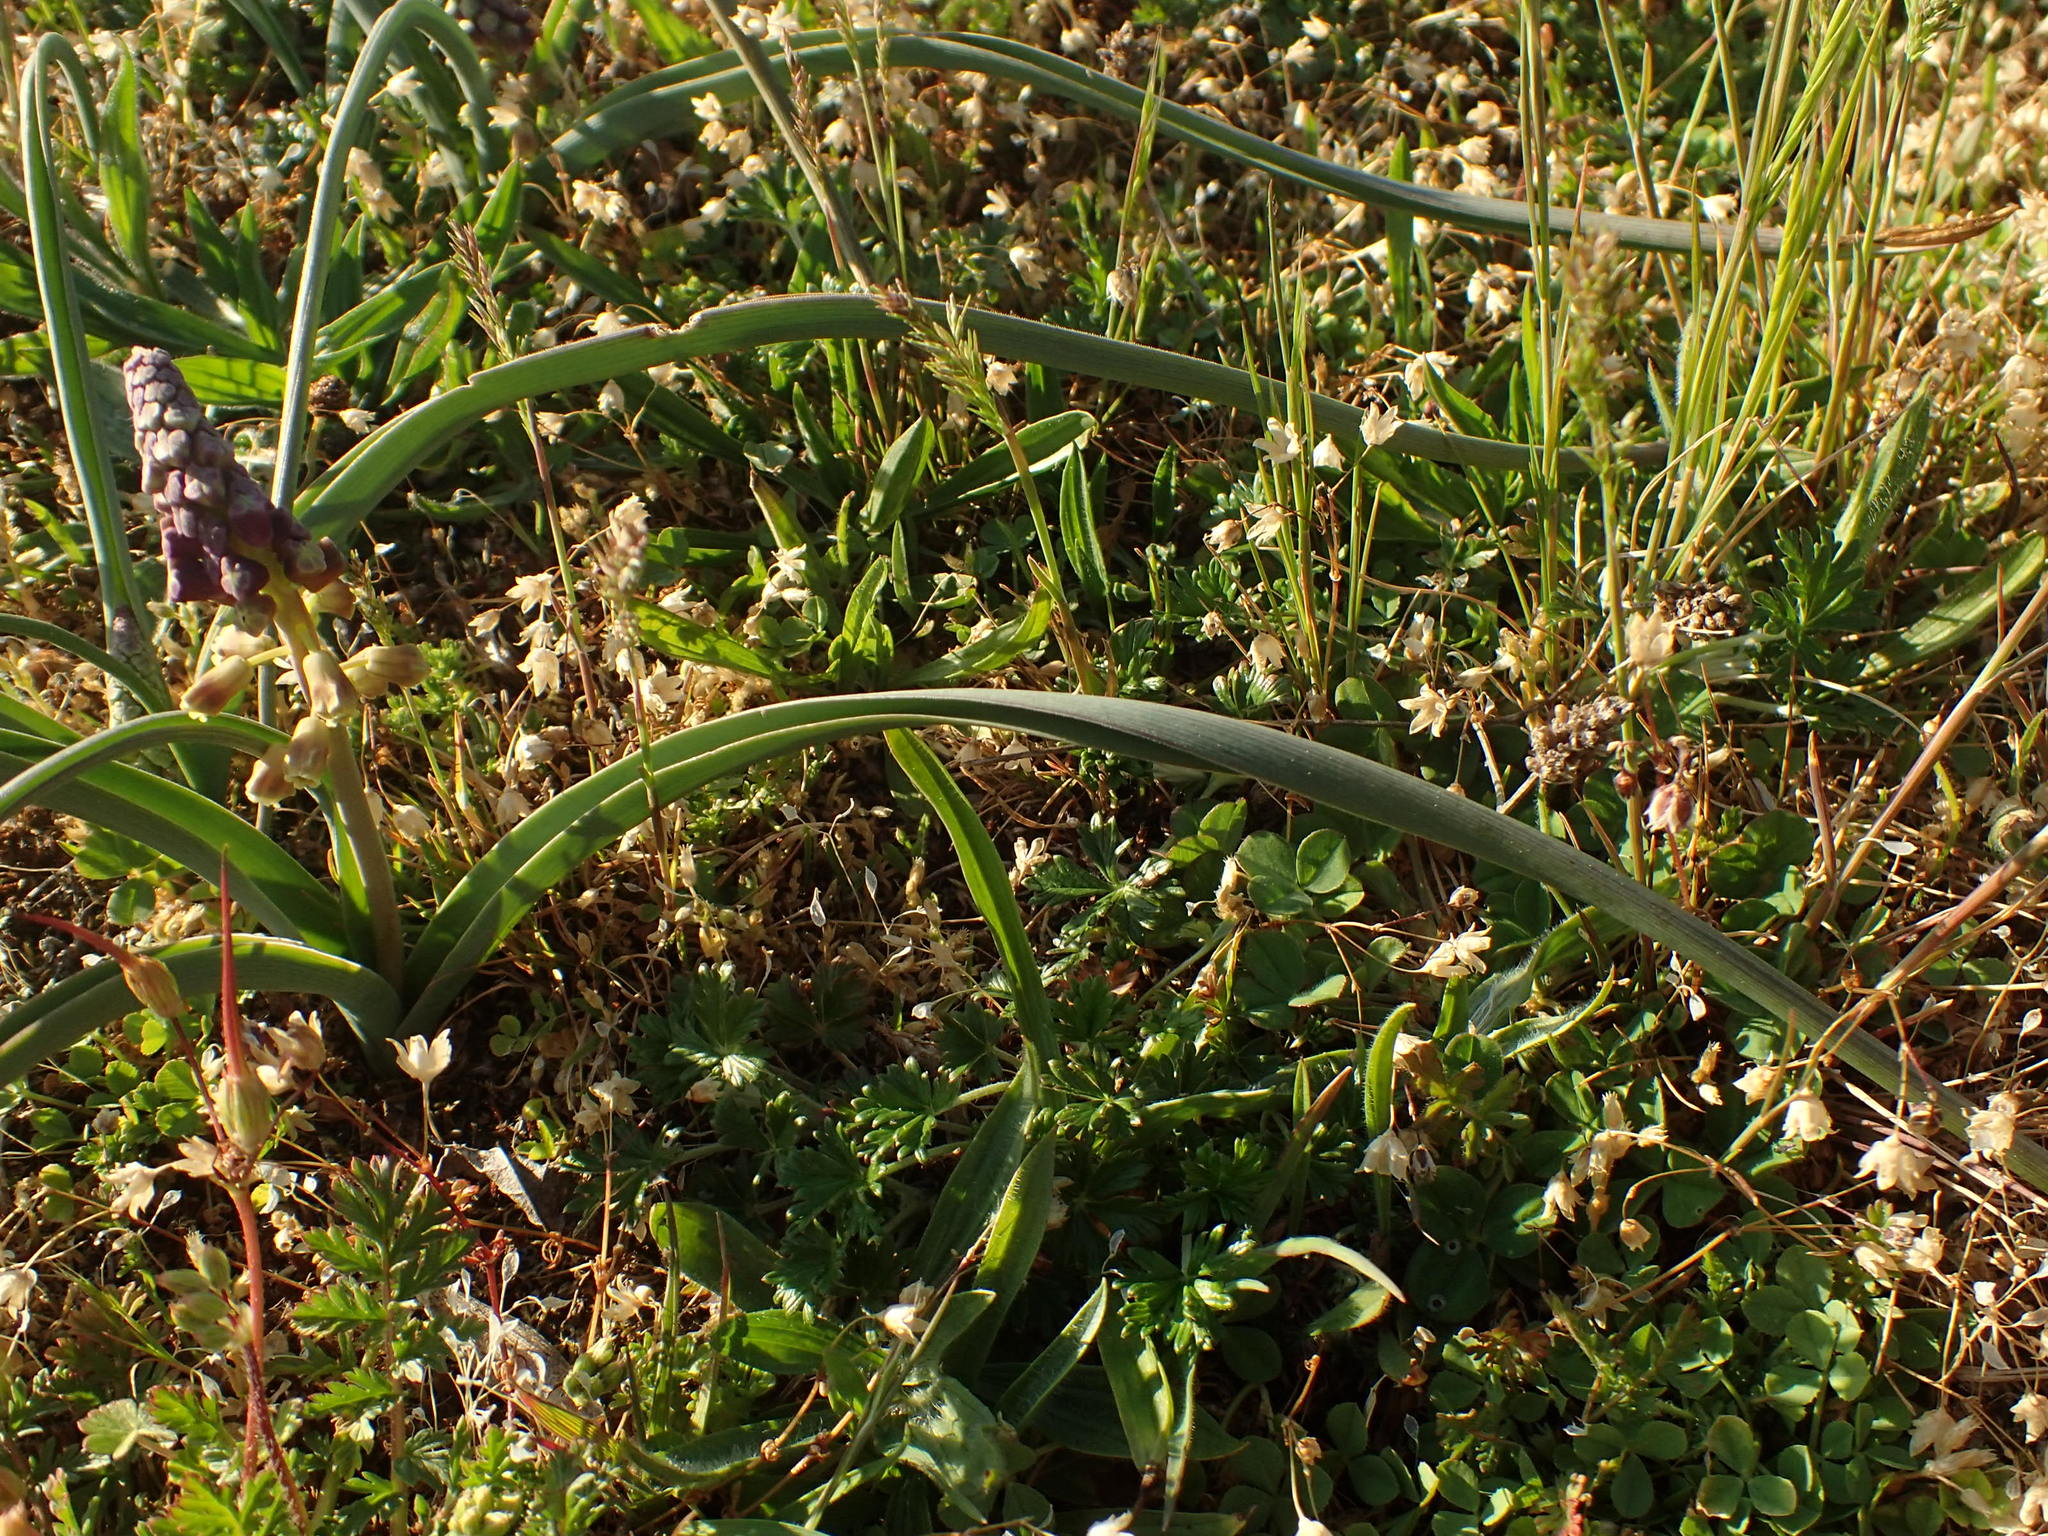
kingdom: Plantae
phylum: Tracheophyta
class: Liliopsida
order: Asparagales
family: Asparagaceae
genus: Muscari
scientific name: Muscari comosum
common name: Tassel hyacinth
